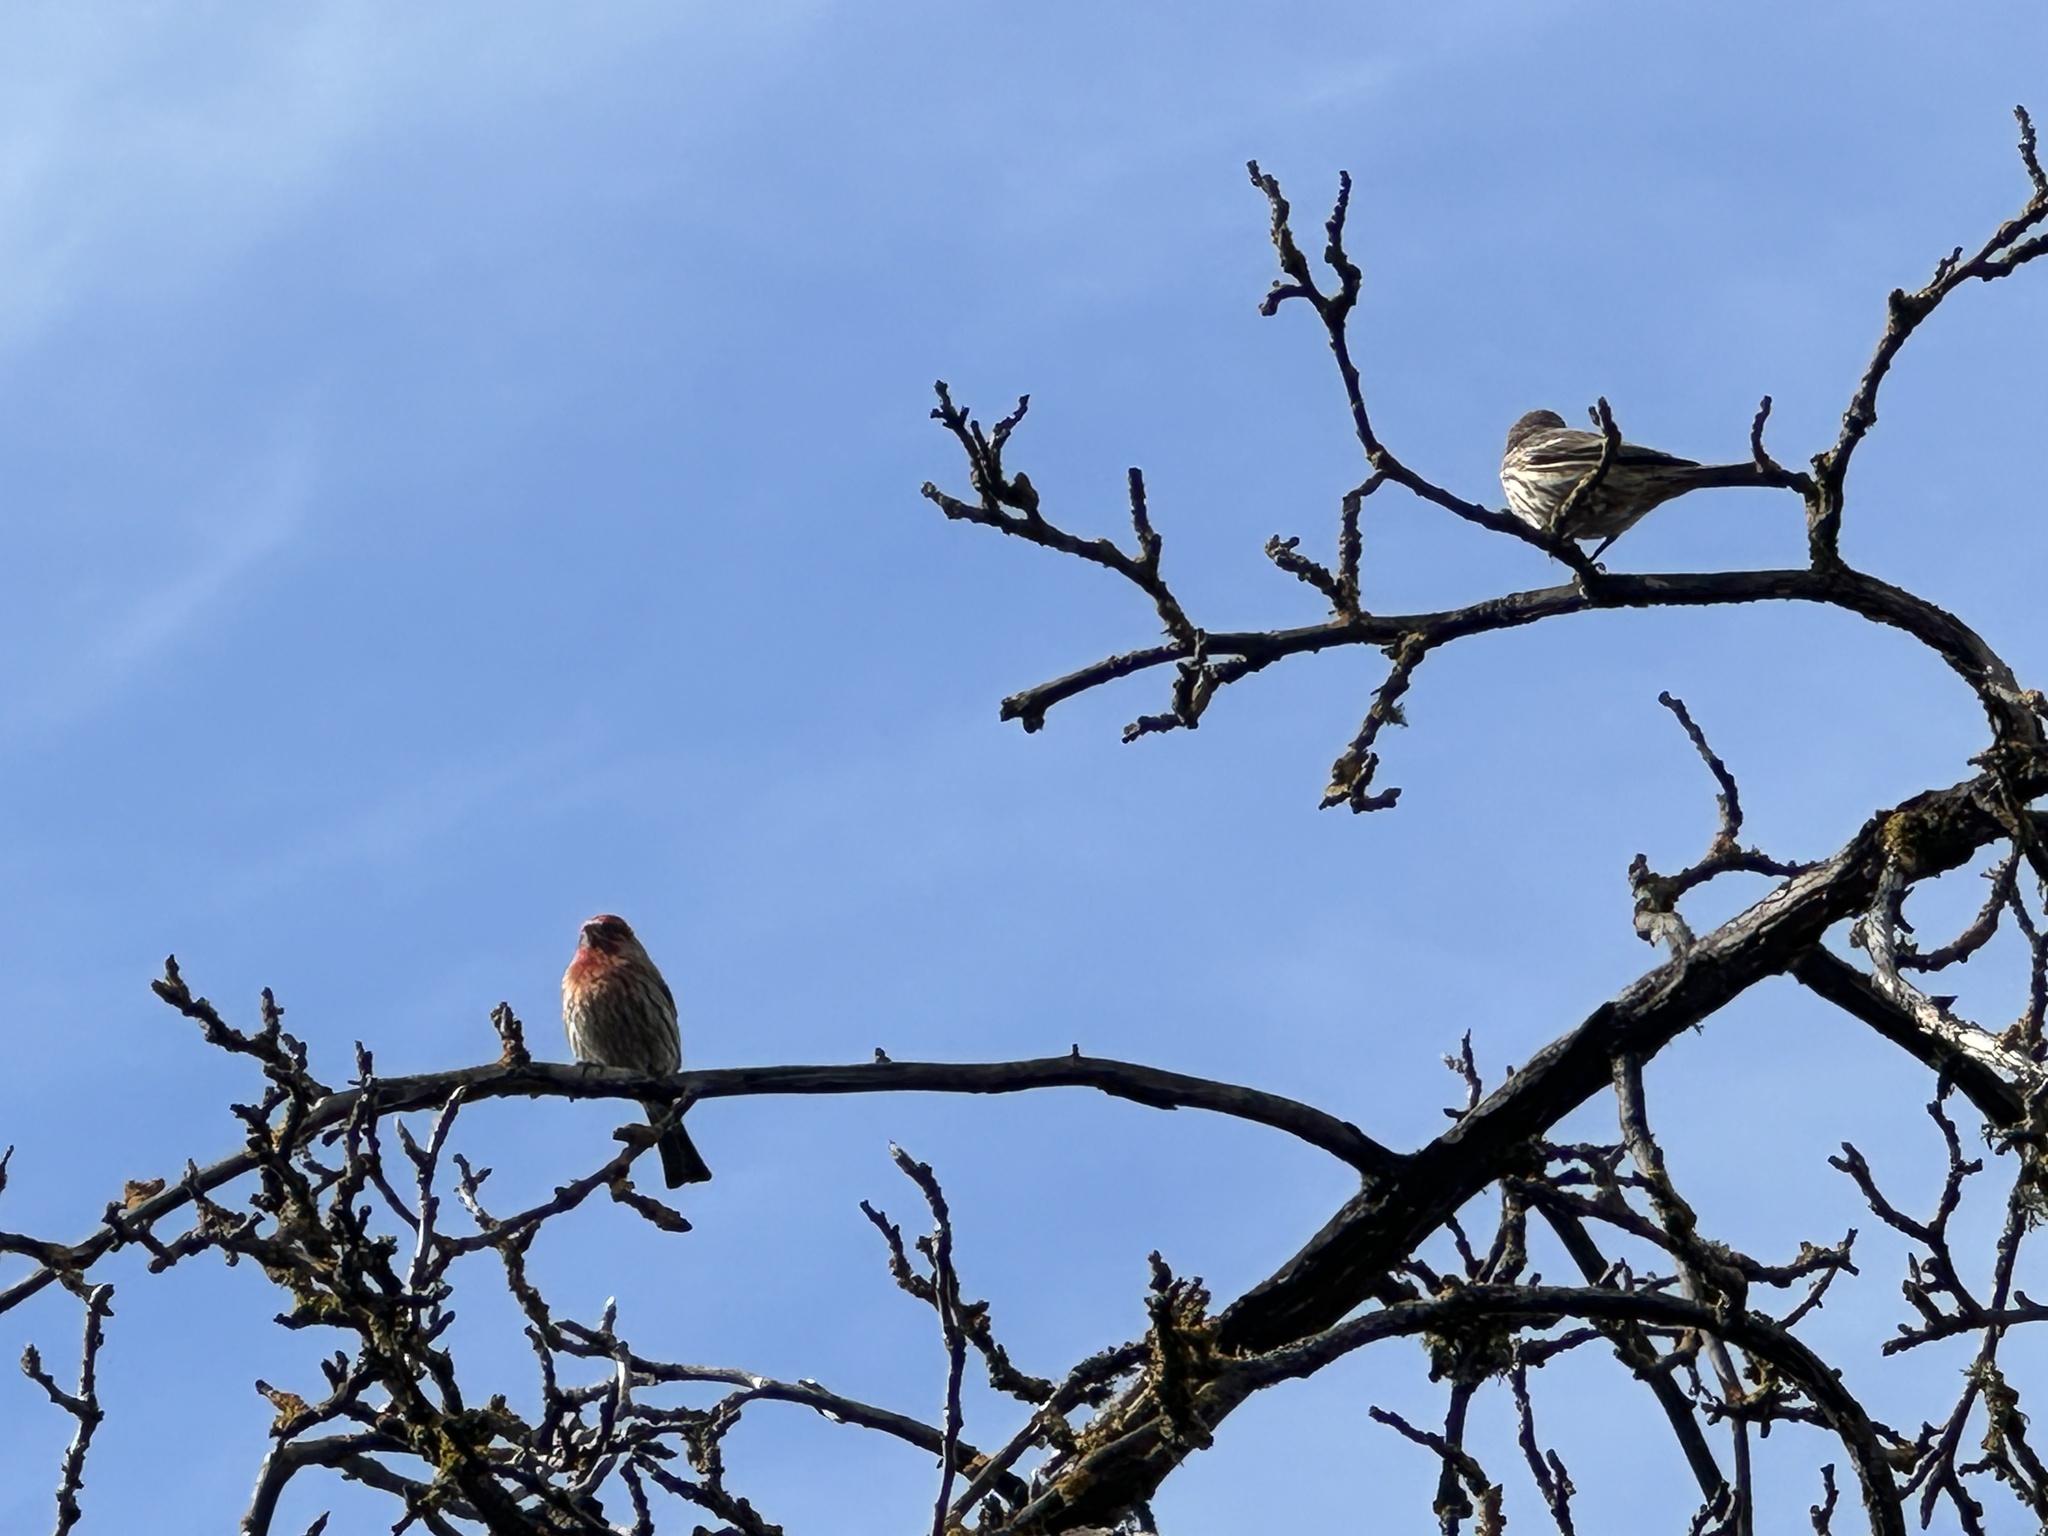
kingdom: Animalia
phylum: Chordata
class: Aves
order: Passeriformes
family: Fringillidae
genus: Haemorhous
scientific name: Haemorhous mexicanus
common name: House finch
